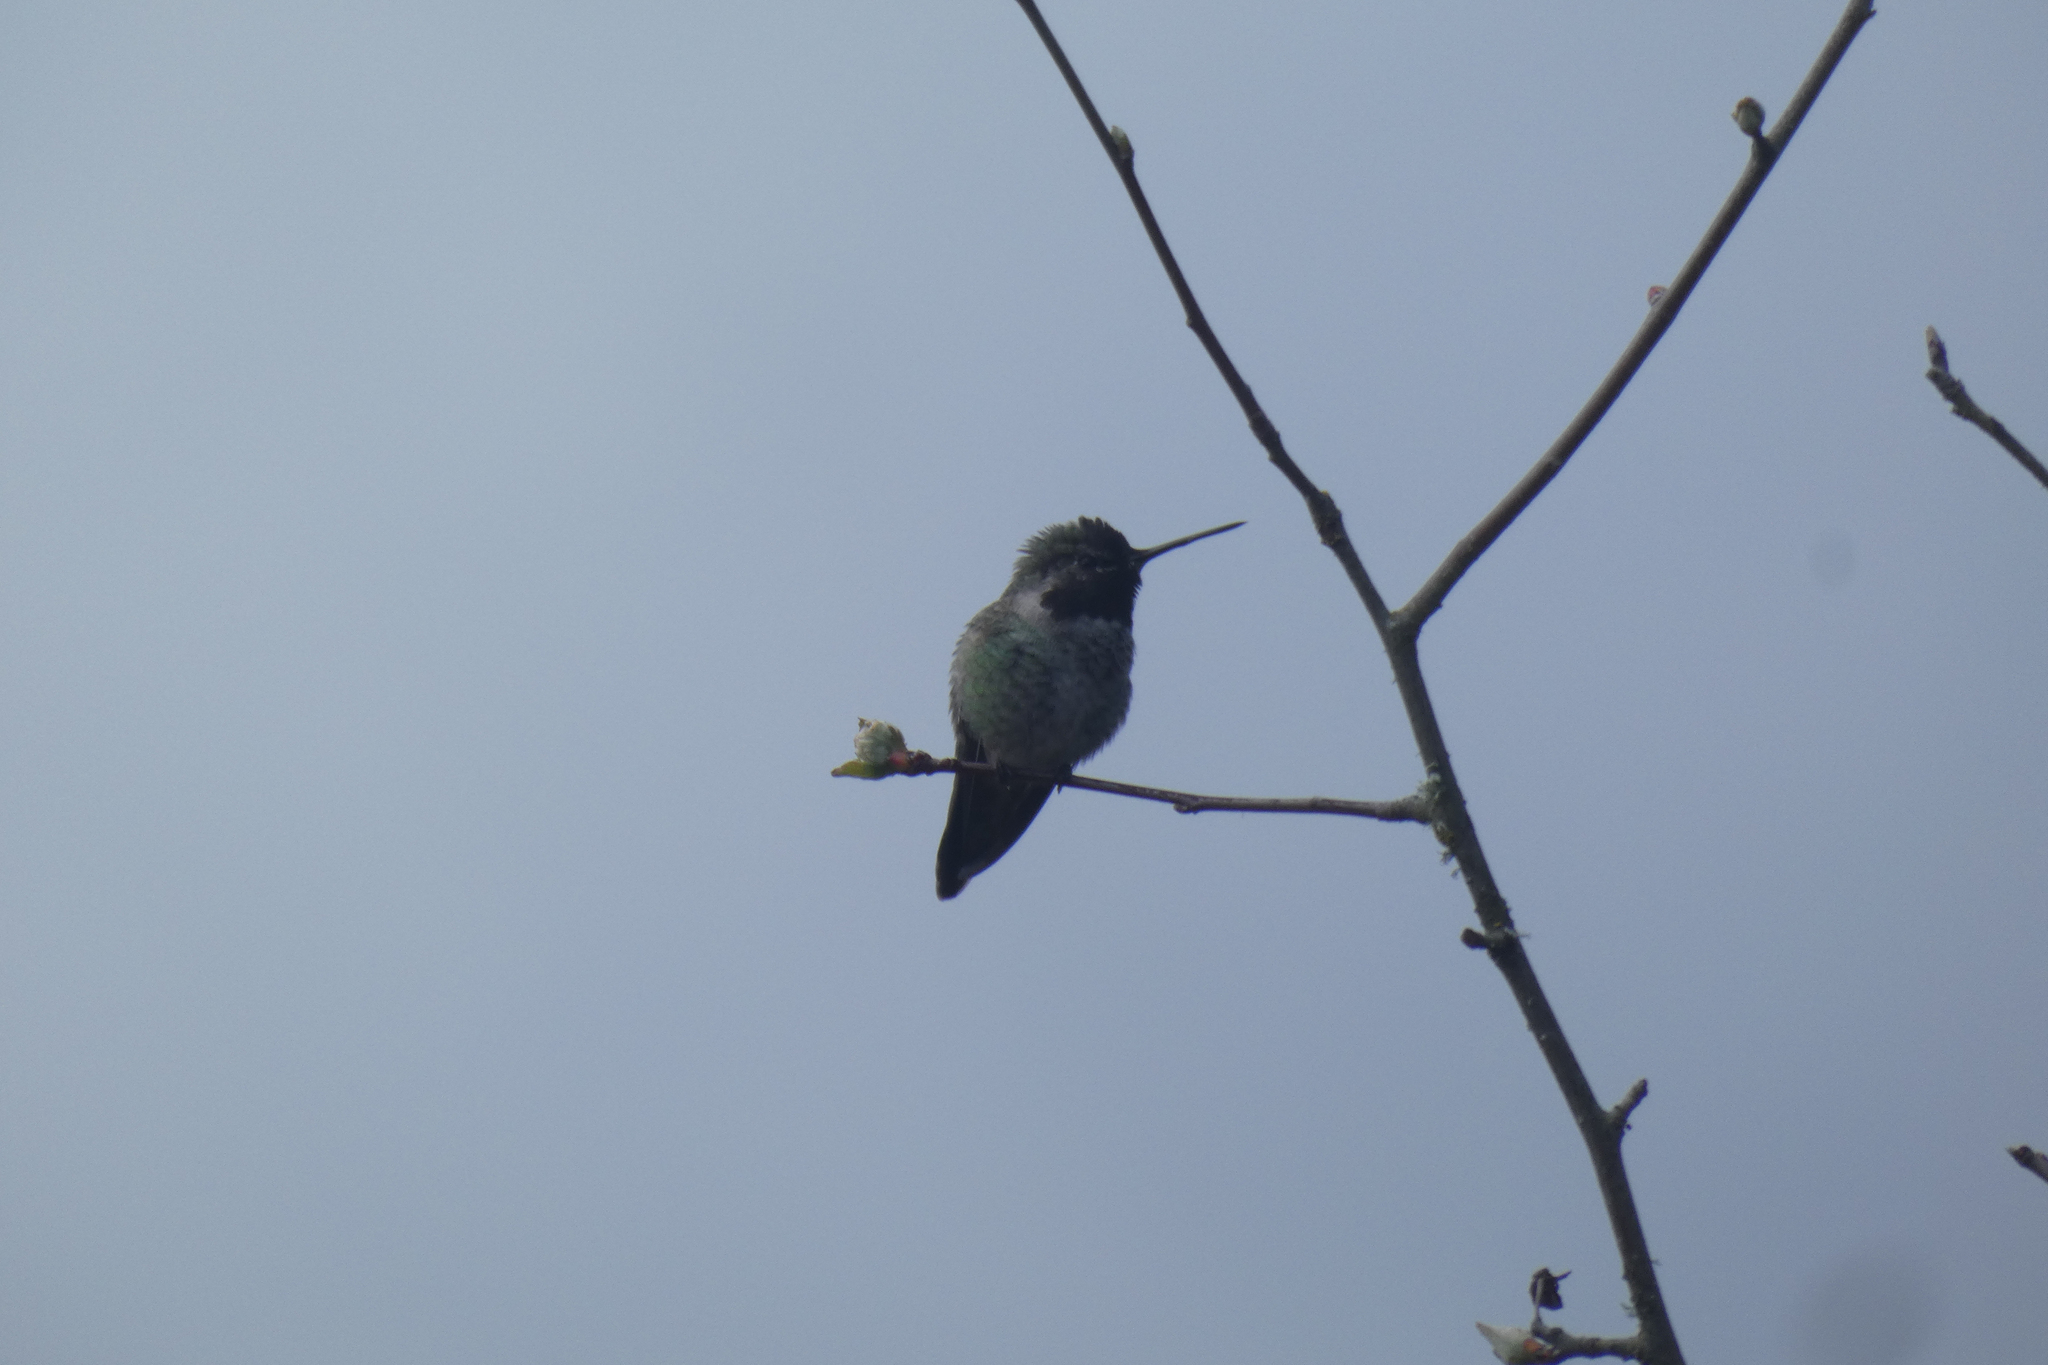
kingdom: Animalia
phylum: Chordata
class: Aves
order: Apodiformes
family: Trochilidae
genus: Calypte
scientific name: Calypte anna
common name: Anna's hummingbird
